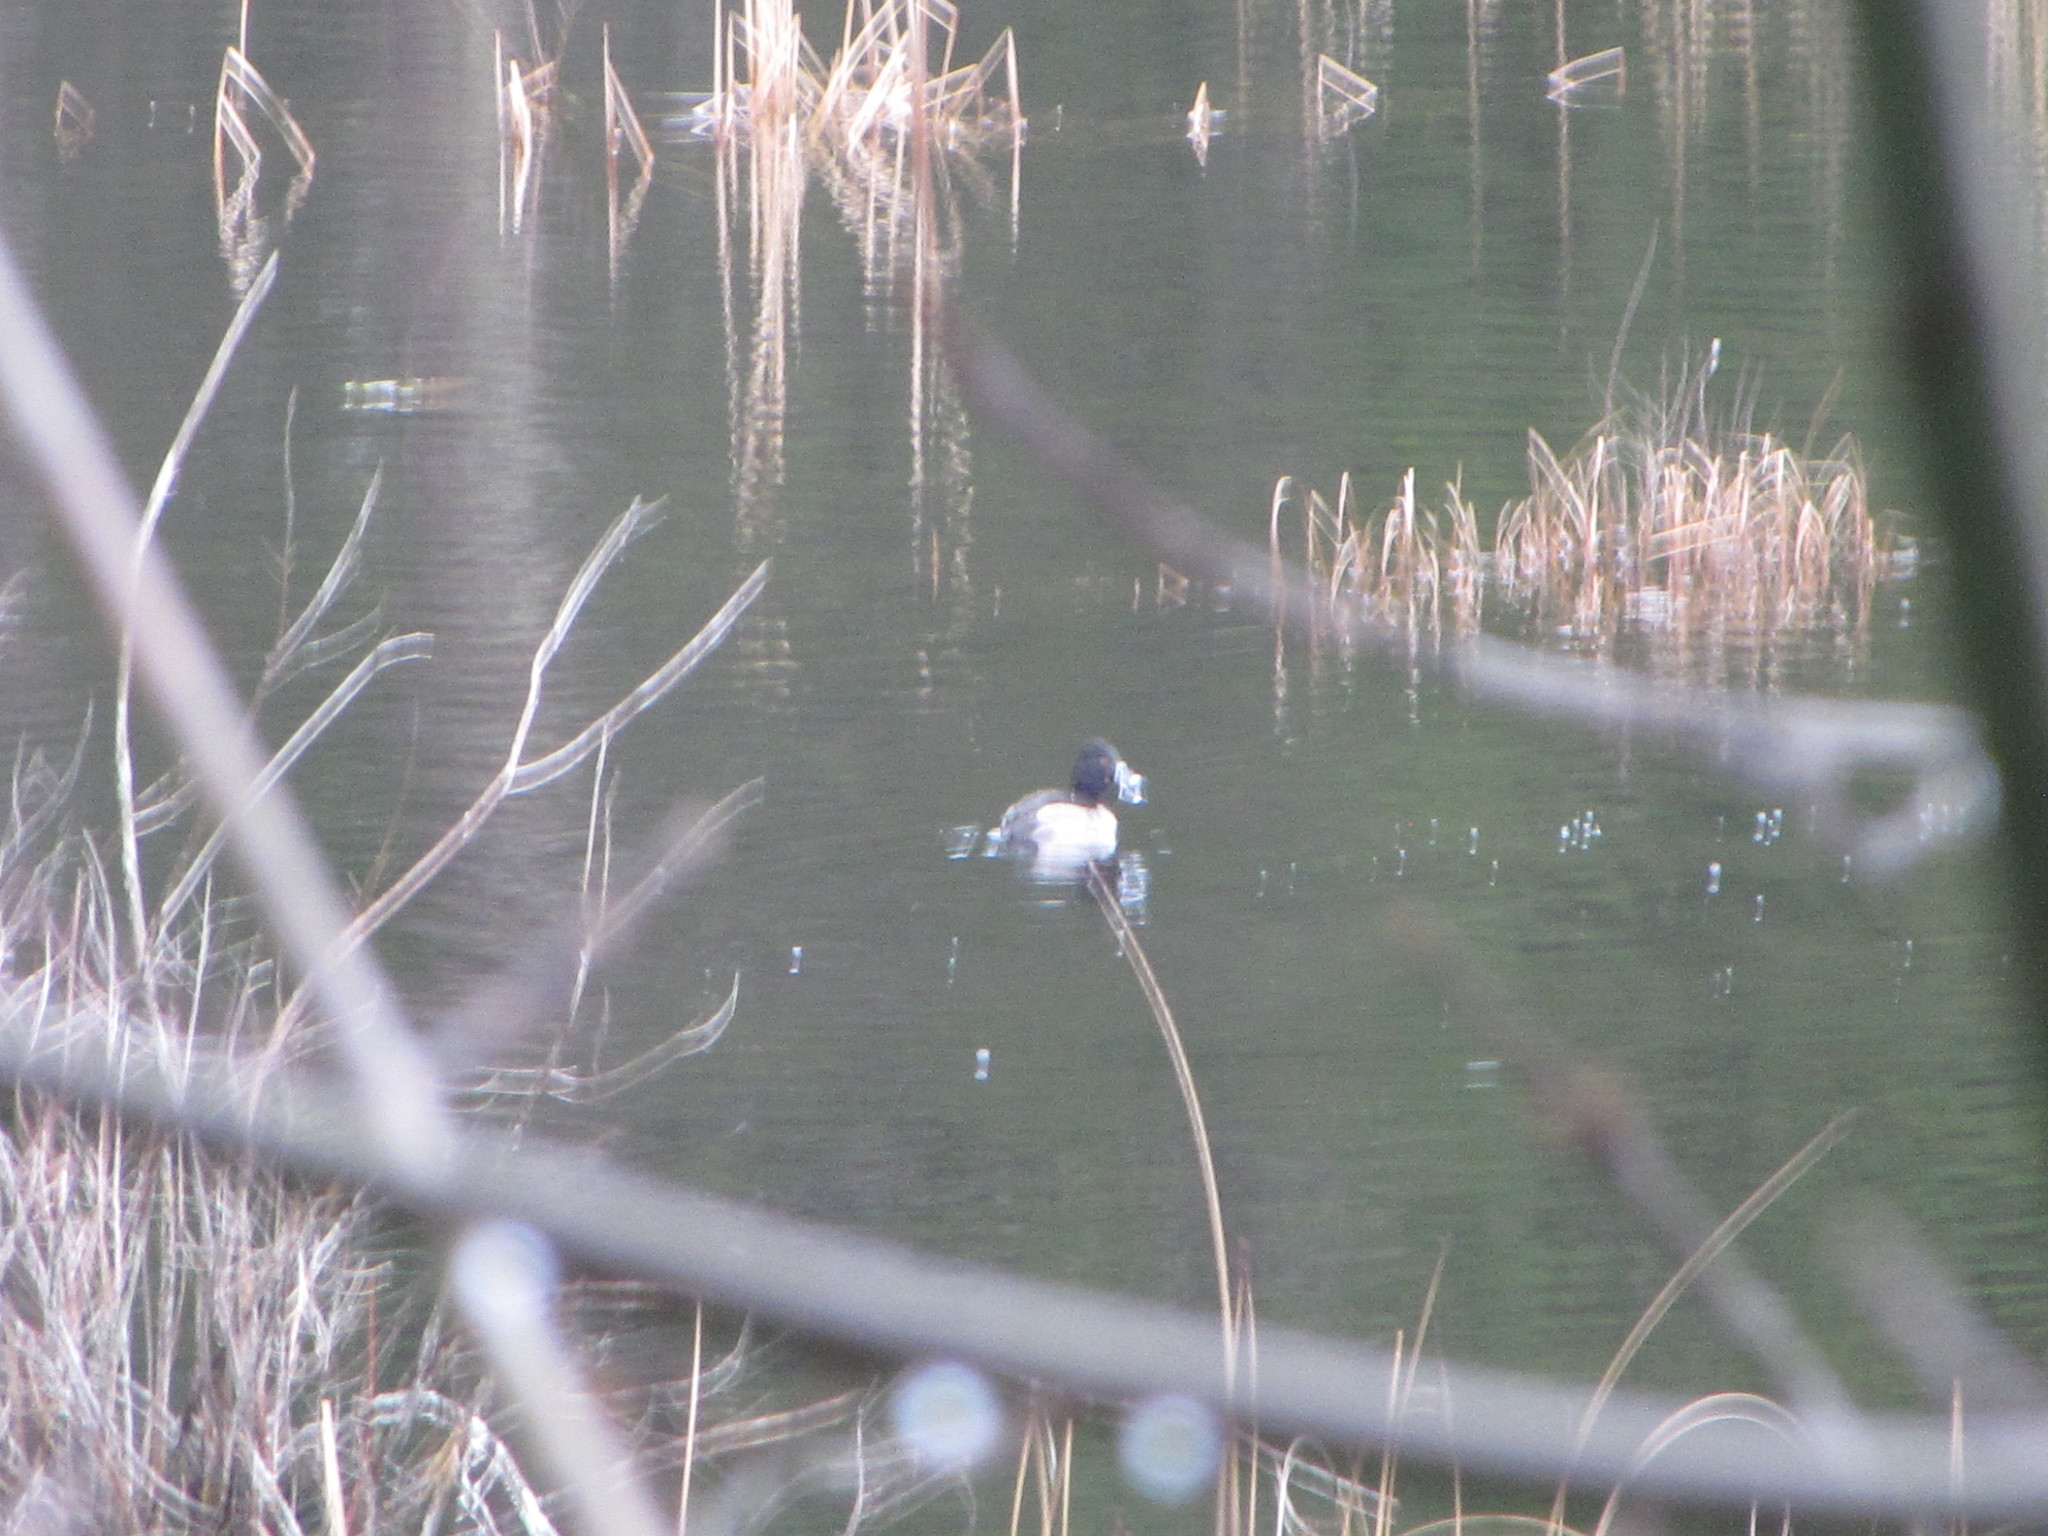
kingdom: Animalia
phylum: Chordata
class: Aves
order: Anseriformes
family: Anatidae
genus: Aythya
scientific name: Aythya collaris
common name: Ring-necked duck
